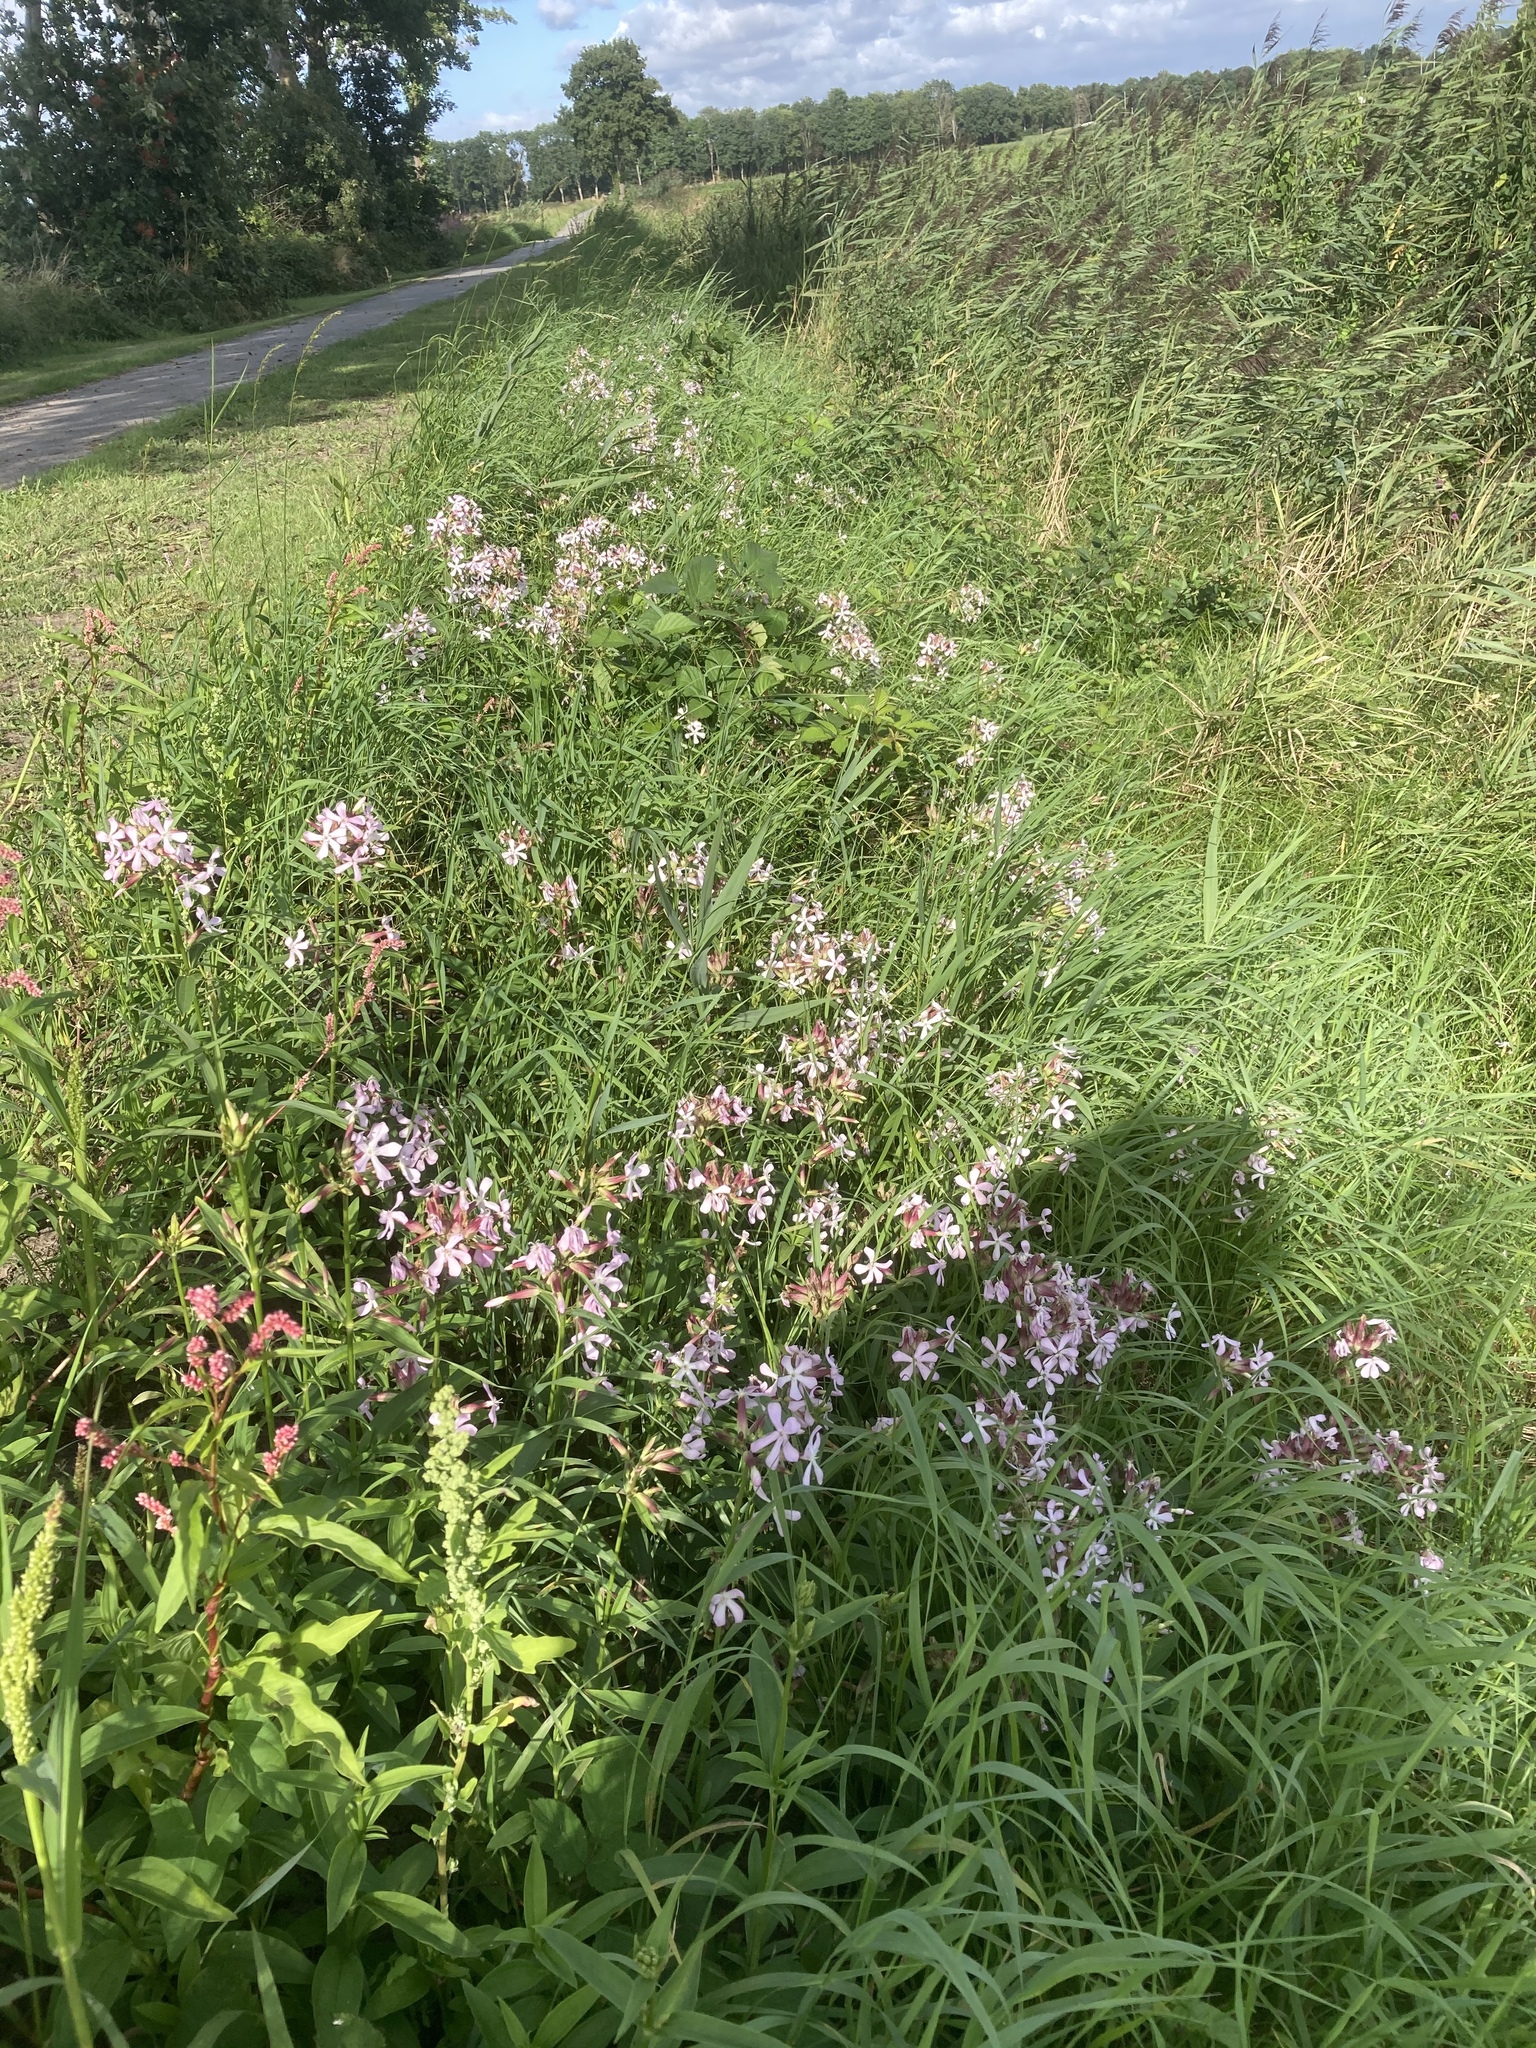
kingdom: Plantae
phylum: Tracheophyta
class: Magnoliopsida
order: Caryophyllales
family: Caryophyllaceae
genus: Saponaria
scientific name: Saponaria officinalis
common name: Soapwort
